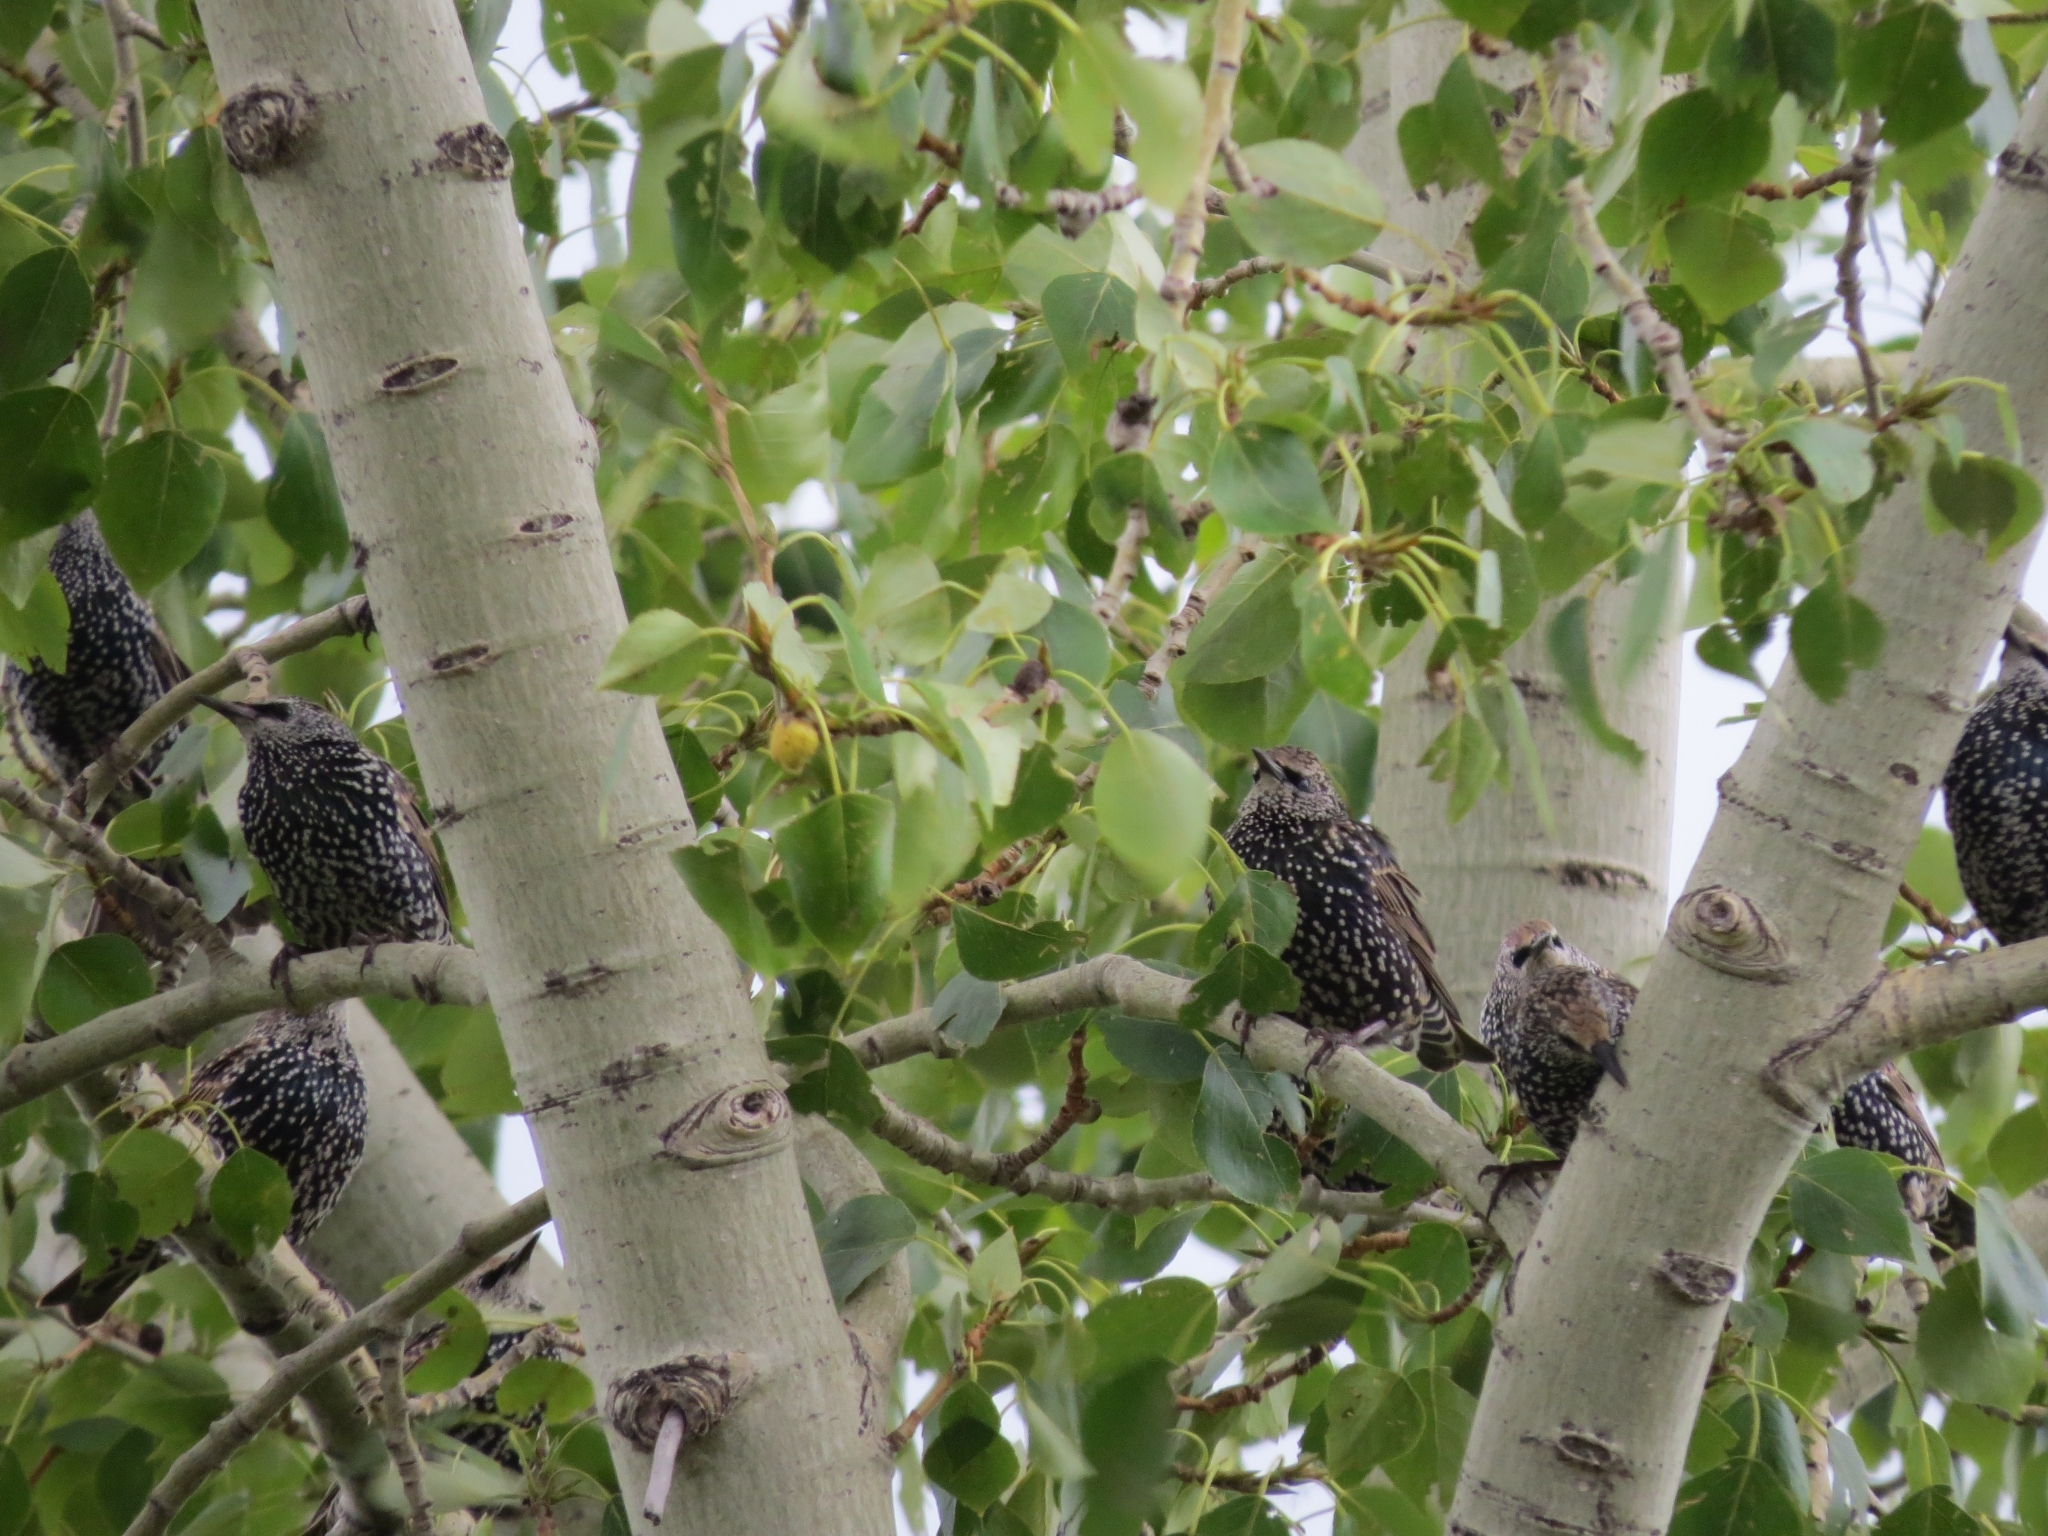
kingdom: Animalia
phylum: Chordata
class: Aves
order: Passeriformes
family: Sturnidae
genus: Sturnus
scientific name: Sturnus vulgaris
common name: Common starling
